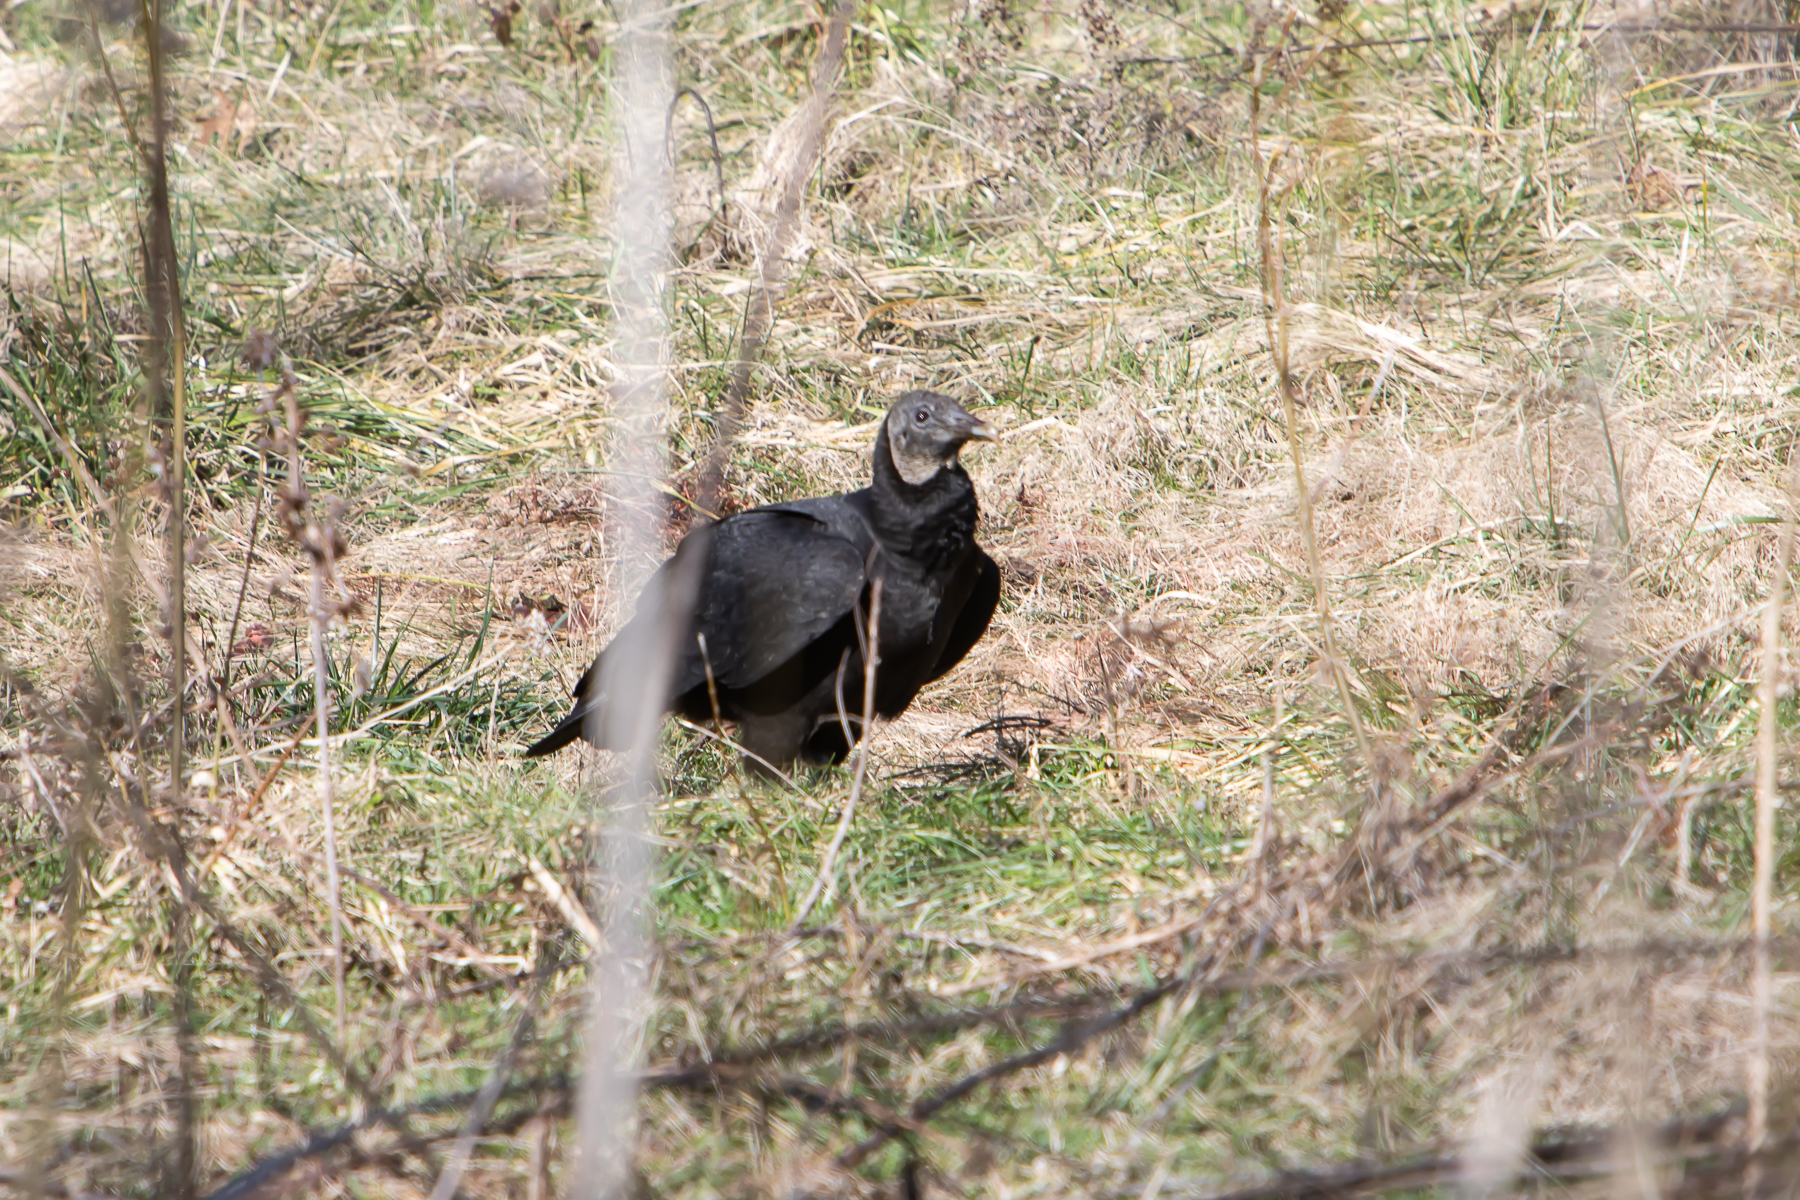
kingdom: Animalia
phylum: Chordata
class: Aves
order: Accipitriformes
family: Cathartidae
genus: Coragyps
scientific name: Coragyps atratus
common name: Black vulture
